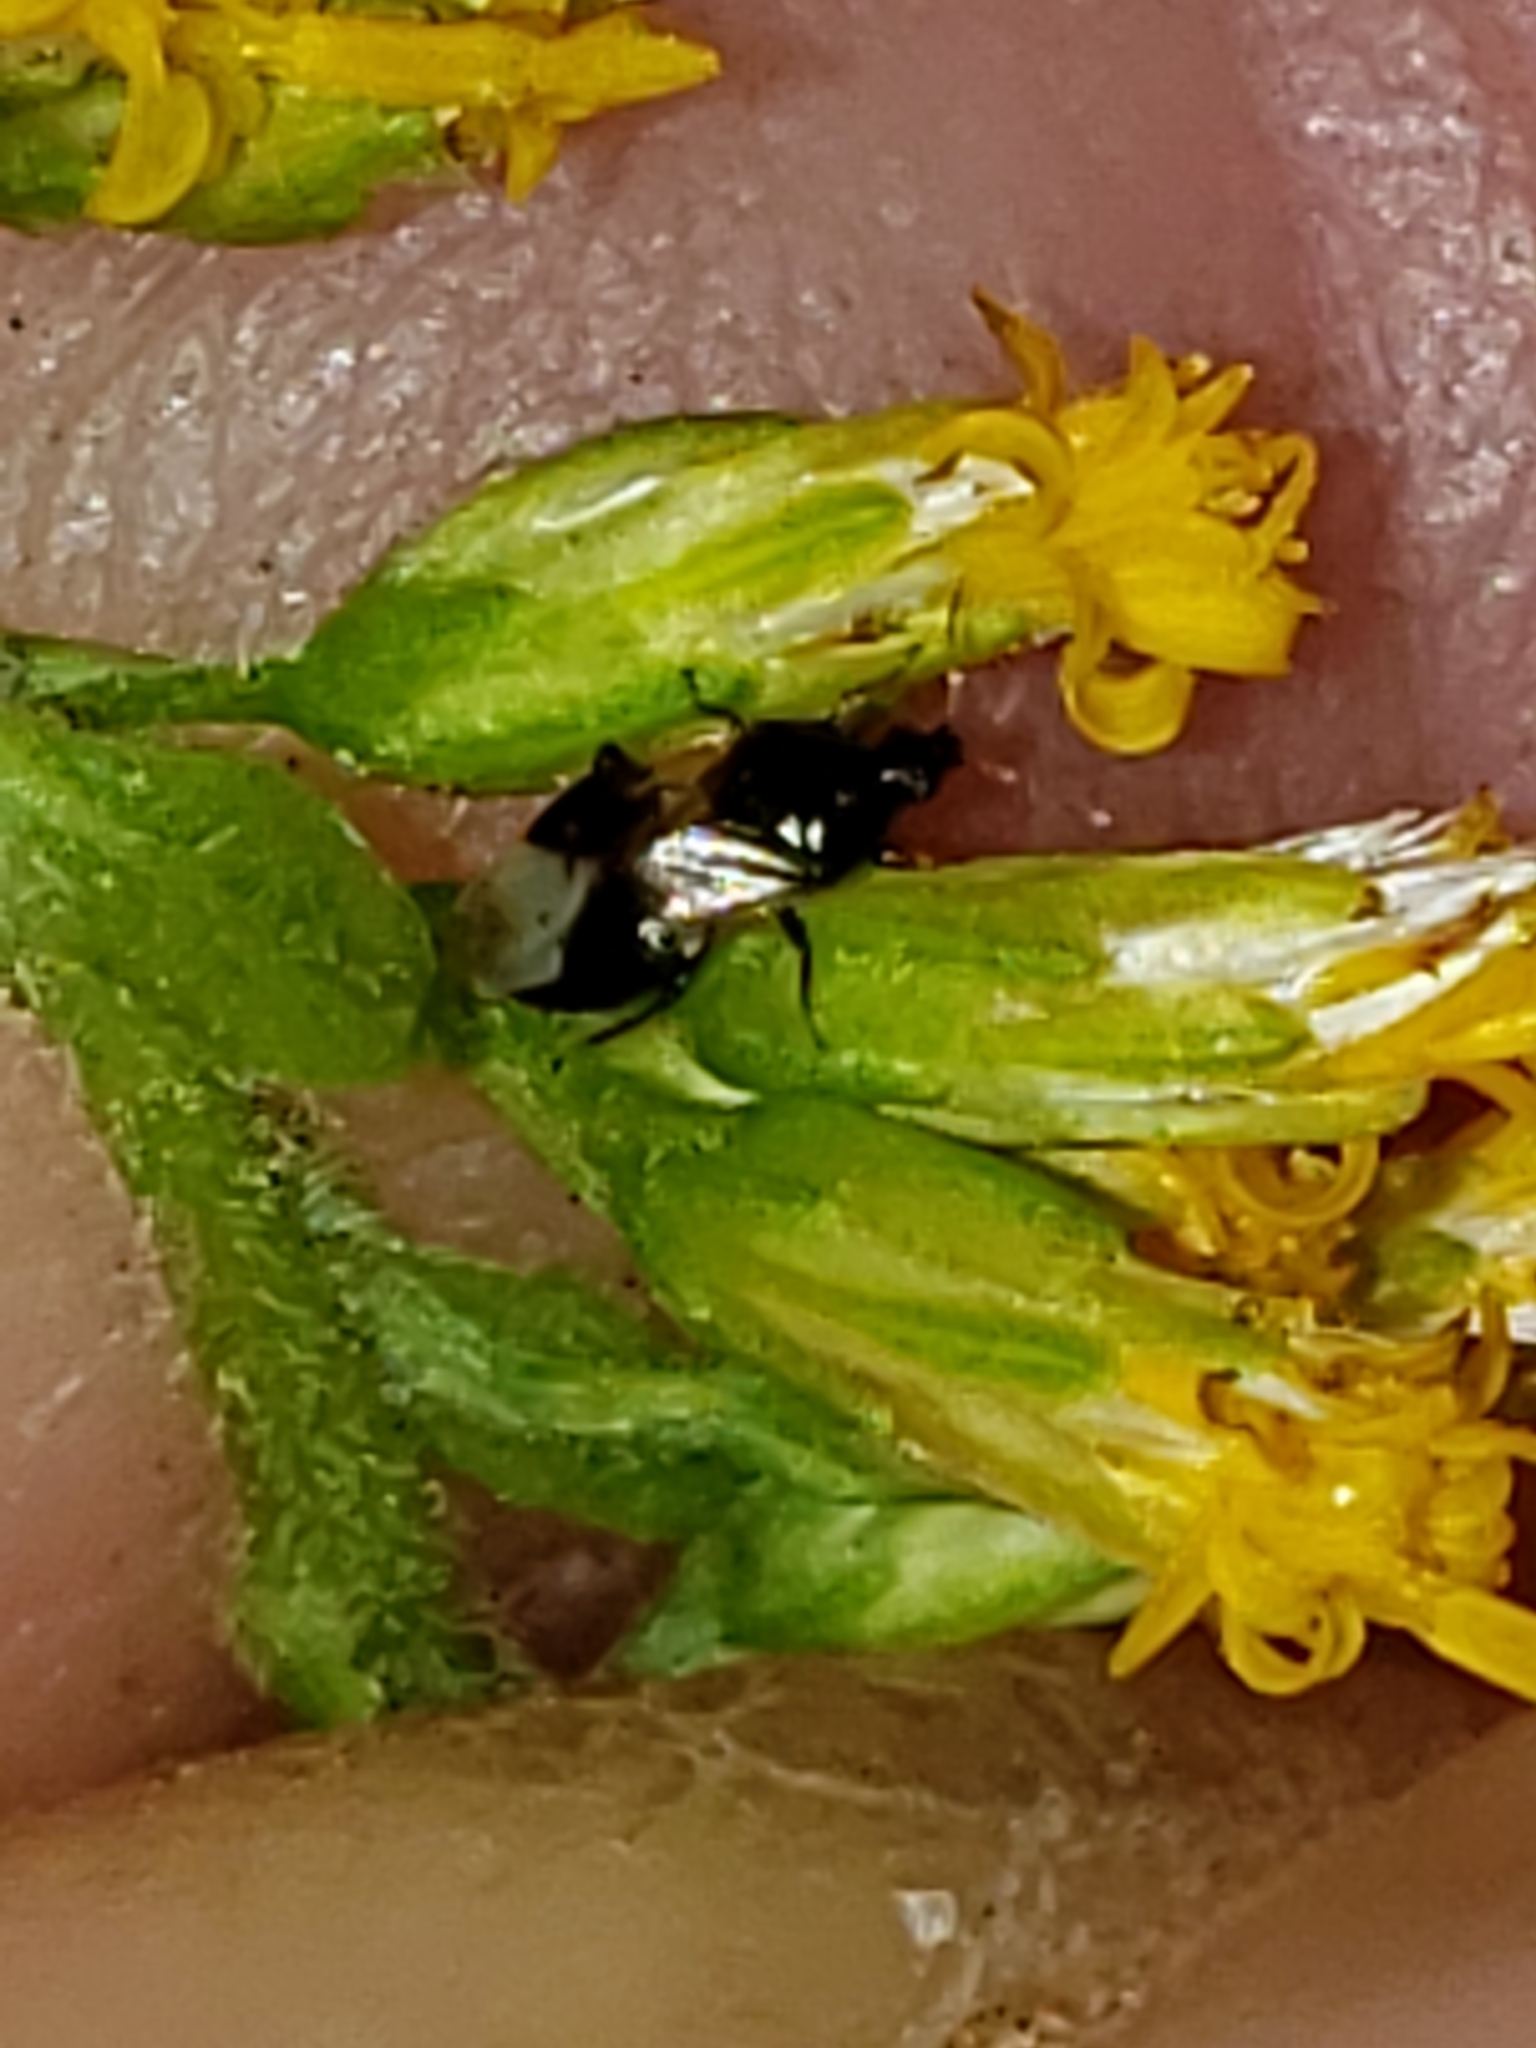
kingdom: Animalia
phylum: Arthropoda
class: Insecta
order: Hemiptera
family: Anthocoridae
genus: Orius
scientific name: Orius insidiosus
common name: Insidious flower bug
